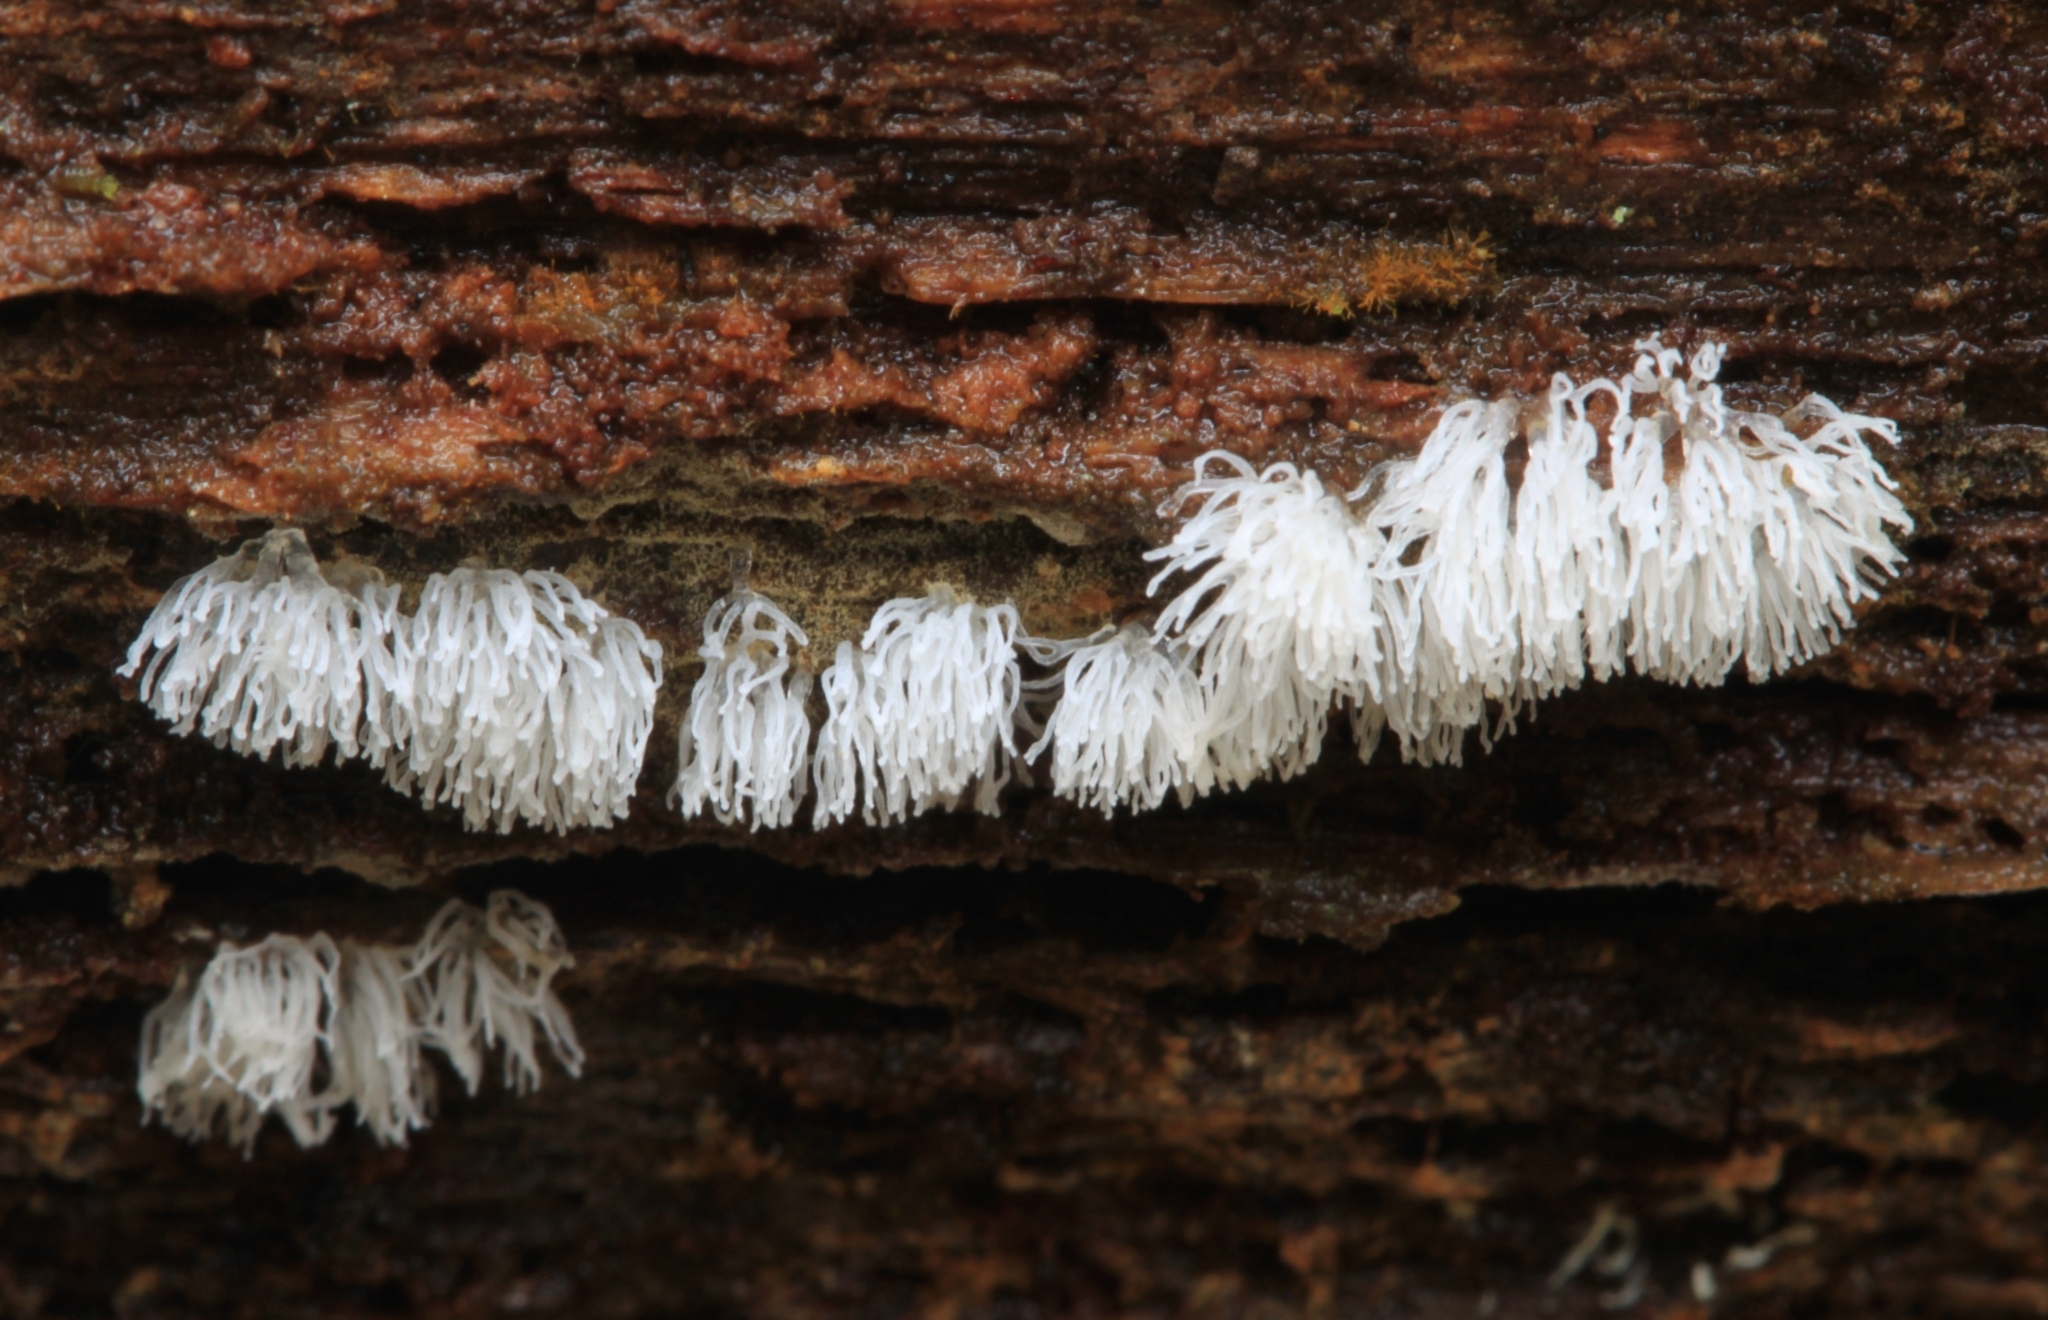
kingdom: Protozoa
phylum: Mycetozoa
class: Protosteliomycetes
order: Ceratiomyxales
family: Ceratiomyxaceae
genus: Ceratiomyxa
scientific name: Ceratiomyxa fruticulosa
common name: Honeycomb coral slime mold
